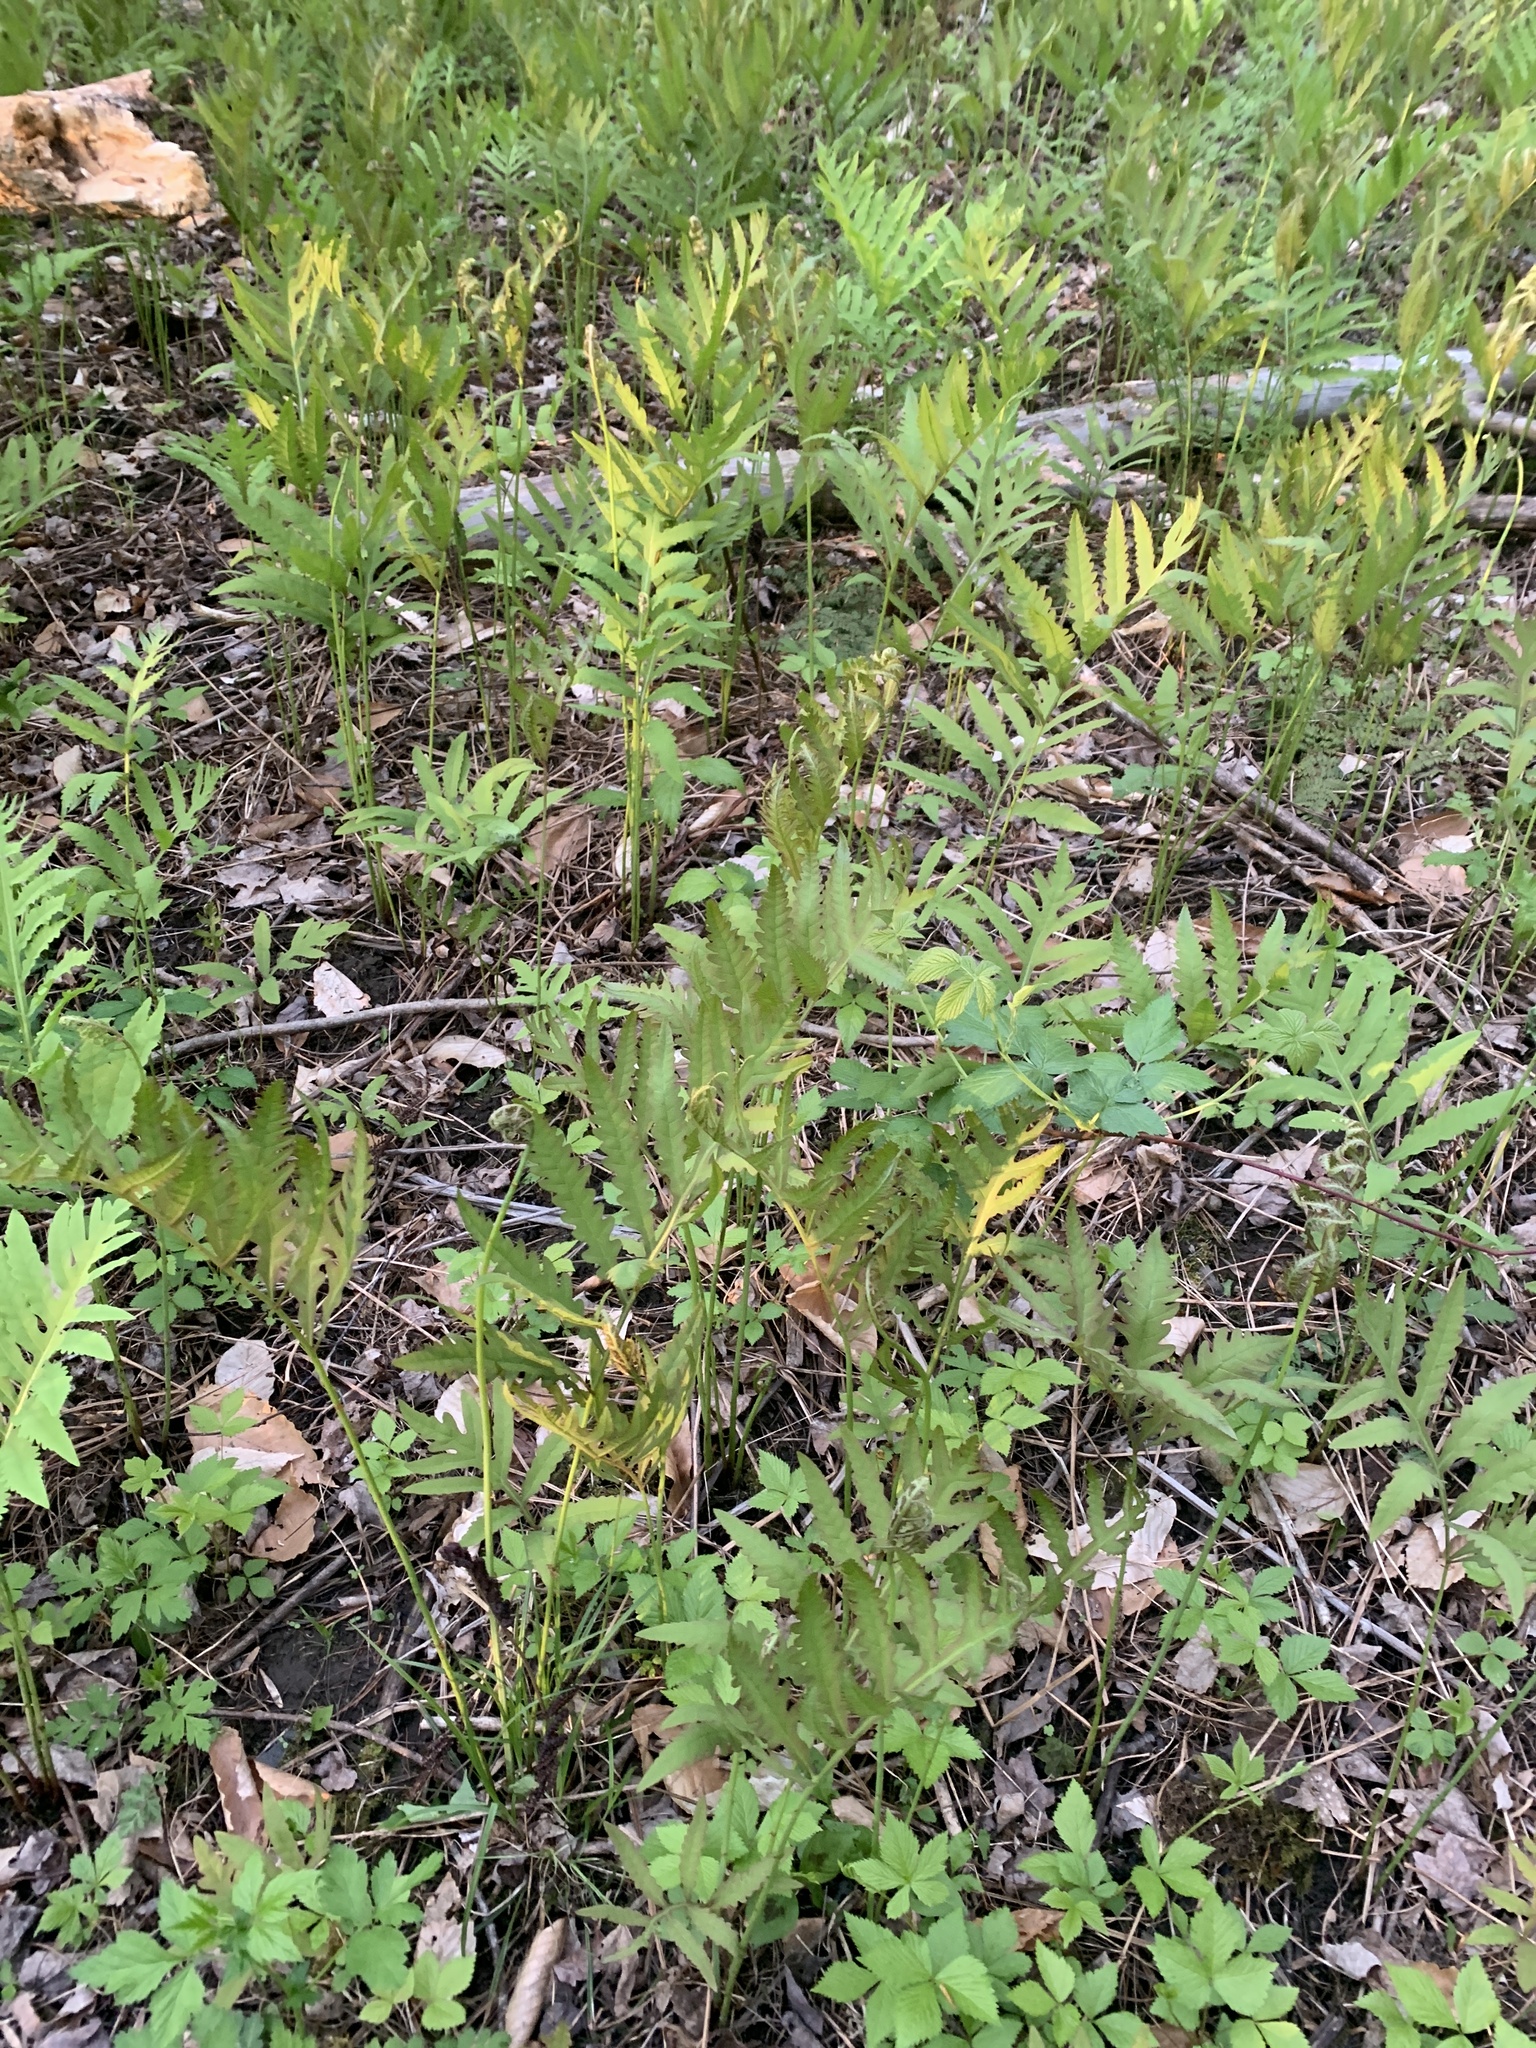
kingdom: Plantae
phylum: Tracheophyta
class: Polypodiopsida
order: Polypodiales
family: Onocleaceae
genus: Onoclea
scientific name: Onoclea sensibilis
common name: Sensitive fern
